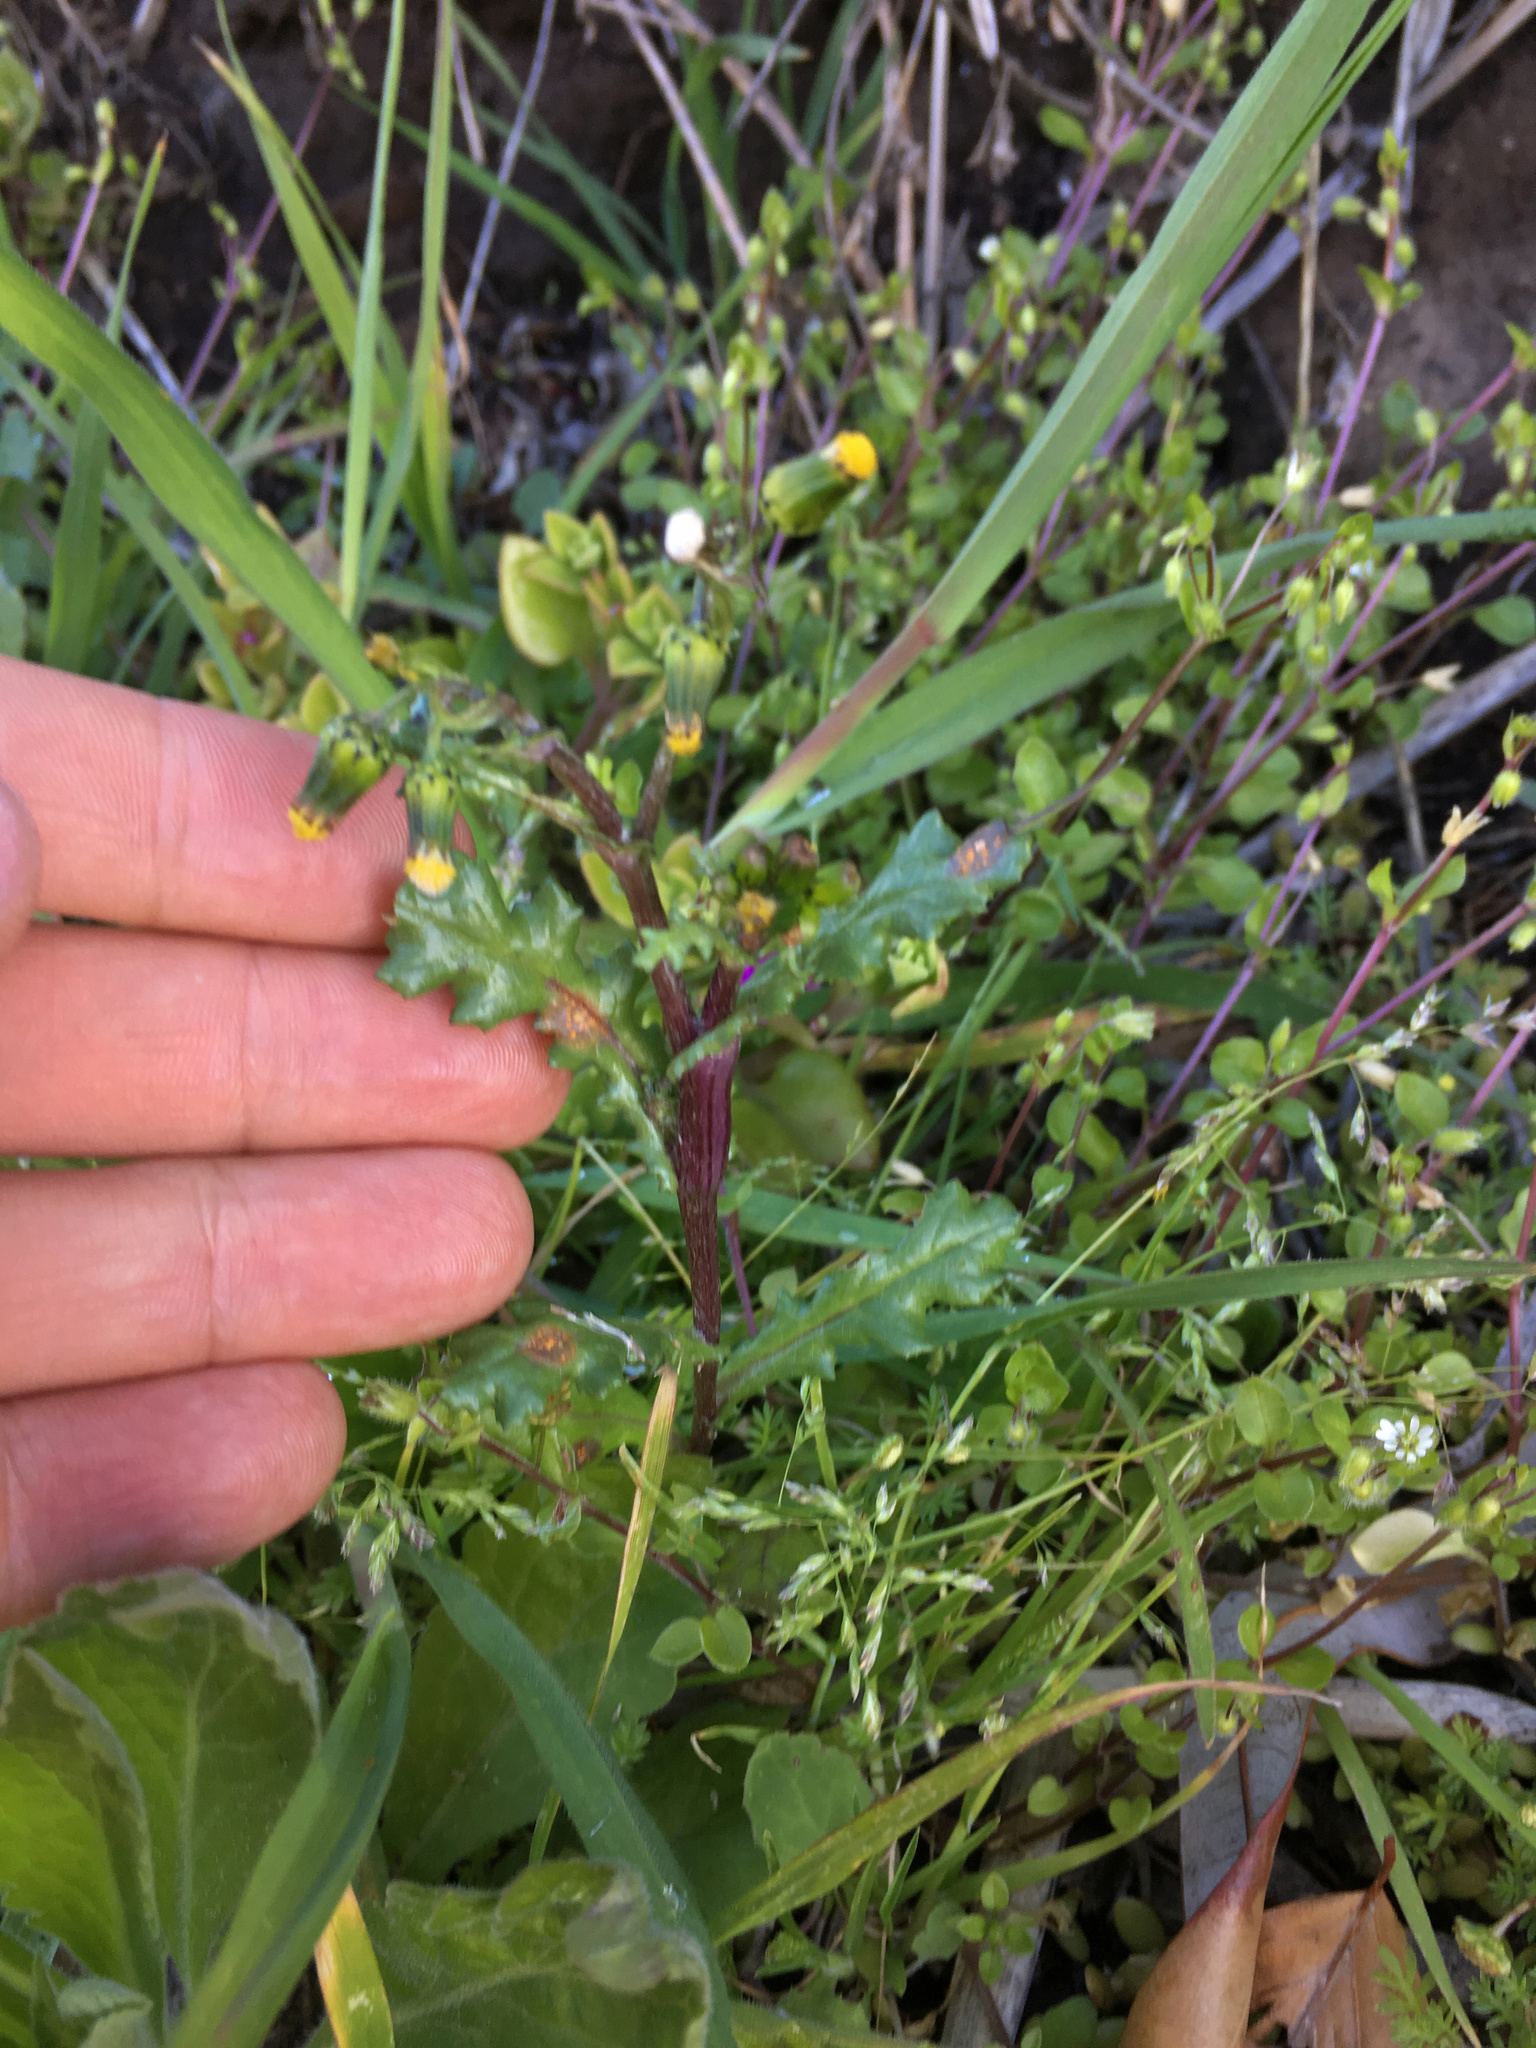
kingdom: Plantae
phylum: Tracheophyta
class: Magnoliopsida
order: Asterales
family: Asteraceae
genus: Senecio
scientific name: Senecio vulgaris
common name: Old-man-in-the-spring
